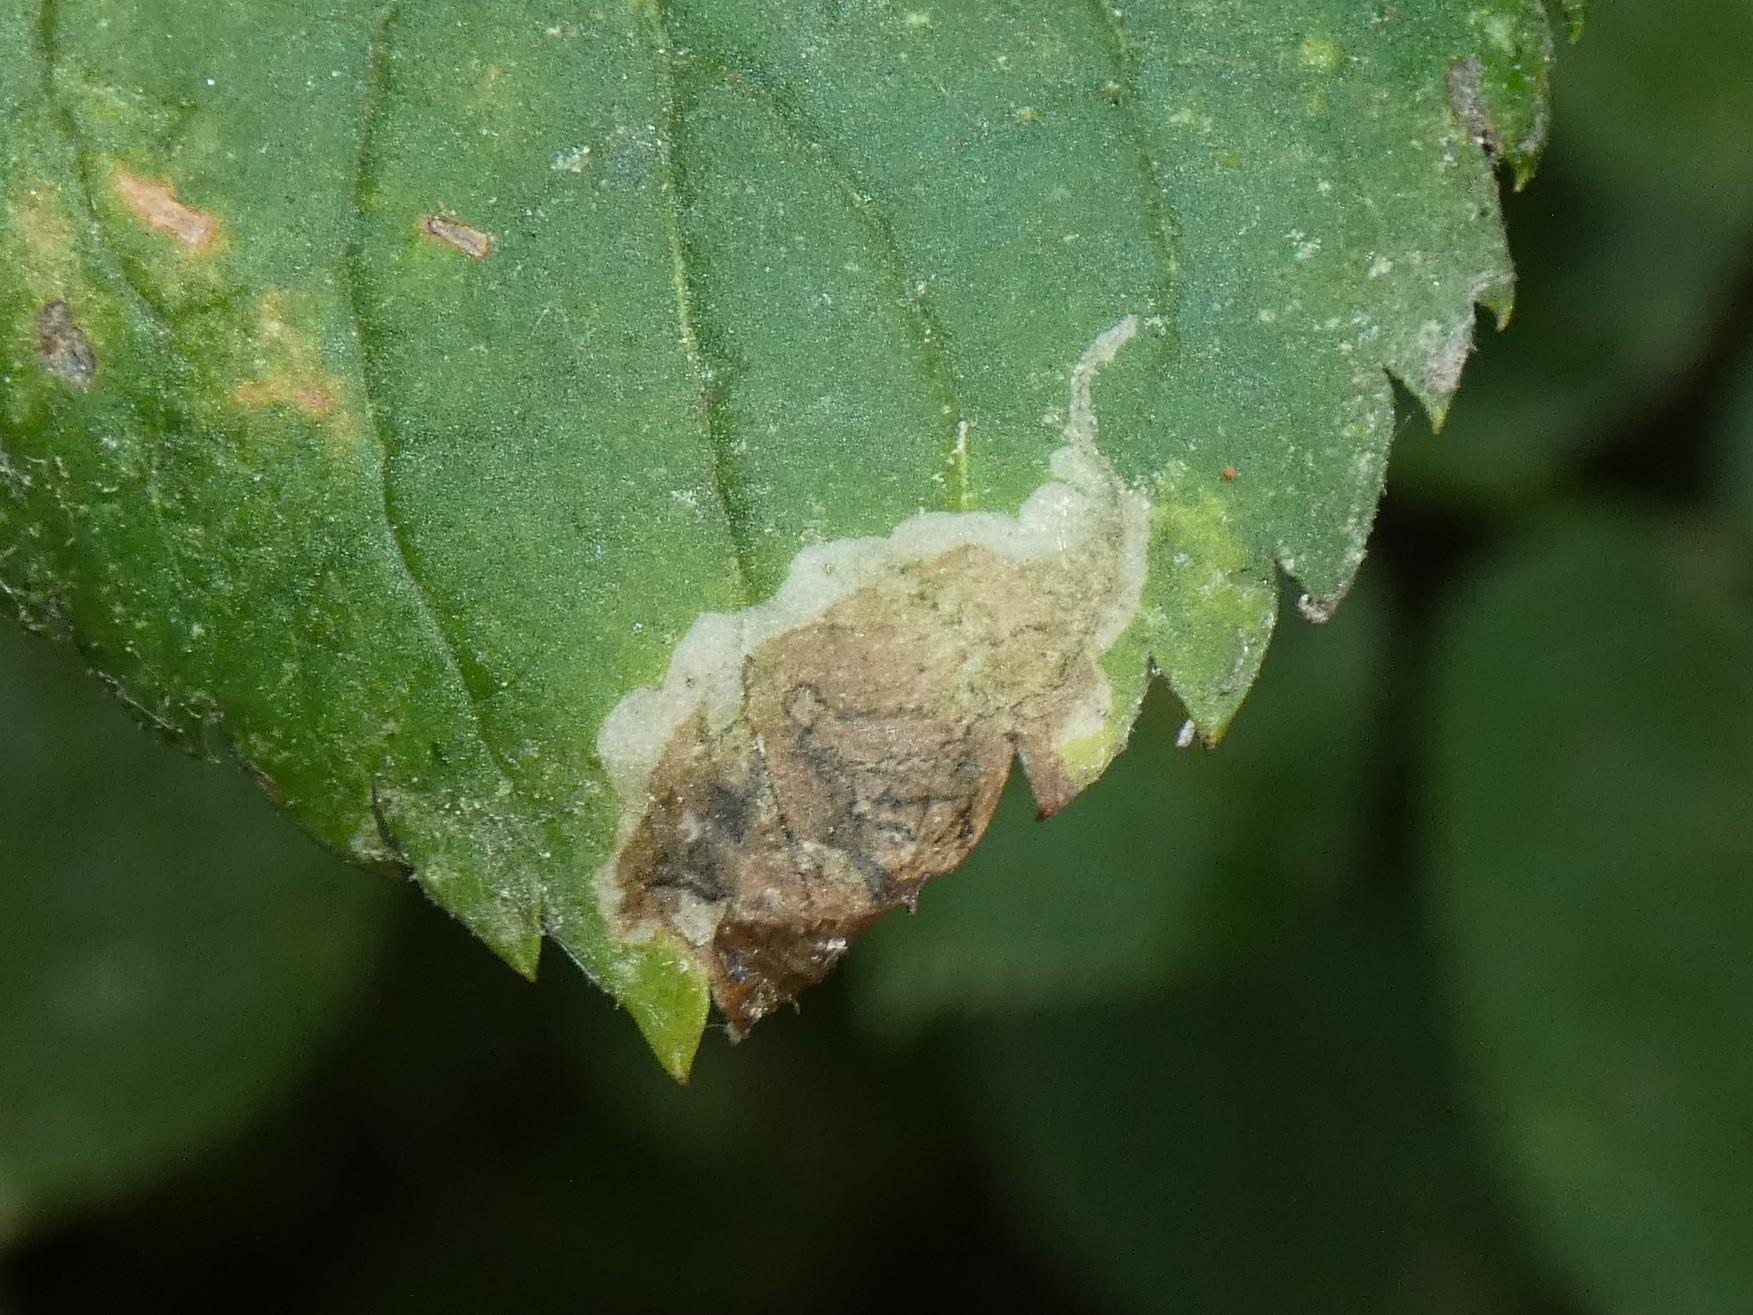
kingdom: Animalia
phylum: Arthropoda
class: Insecta
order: Diptera
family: Agromyzidae
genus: Liriomyza
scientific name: Liriomyza amoena
